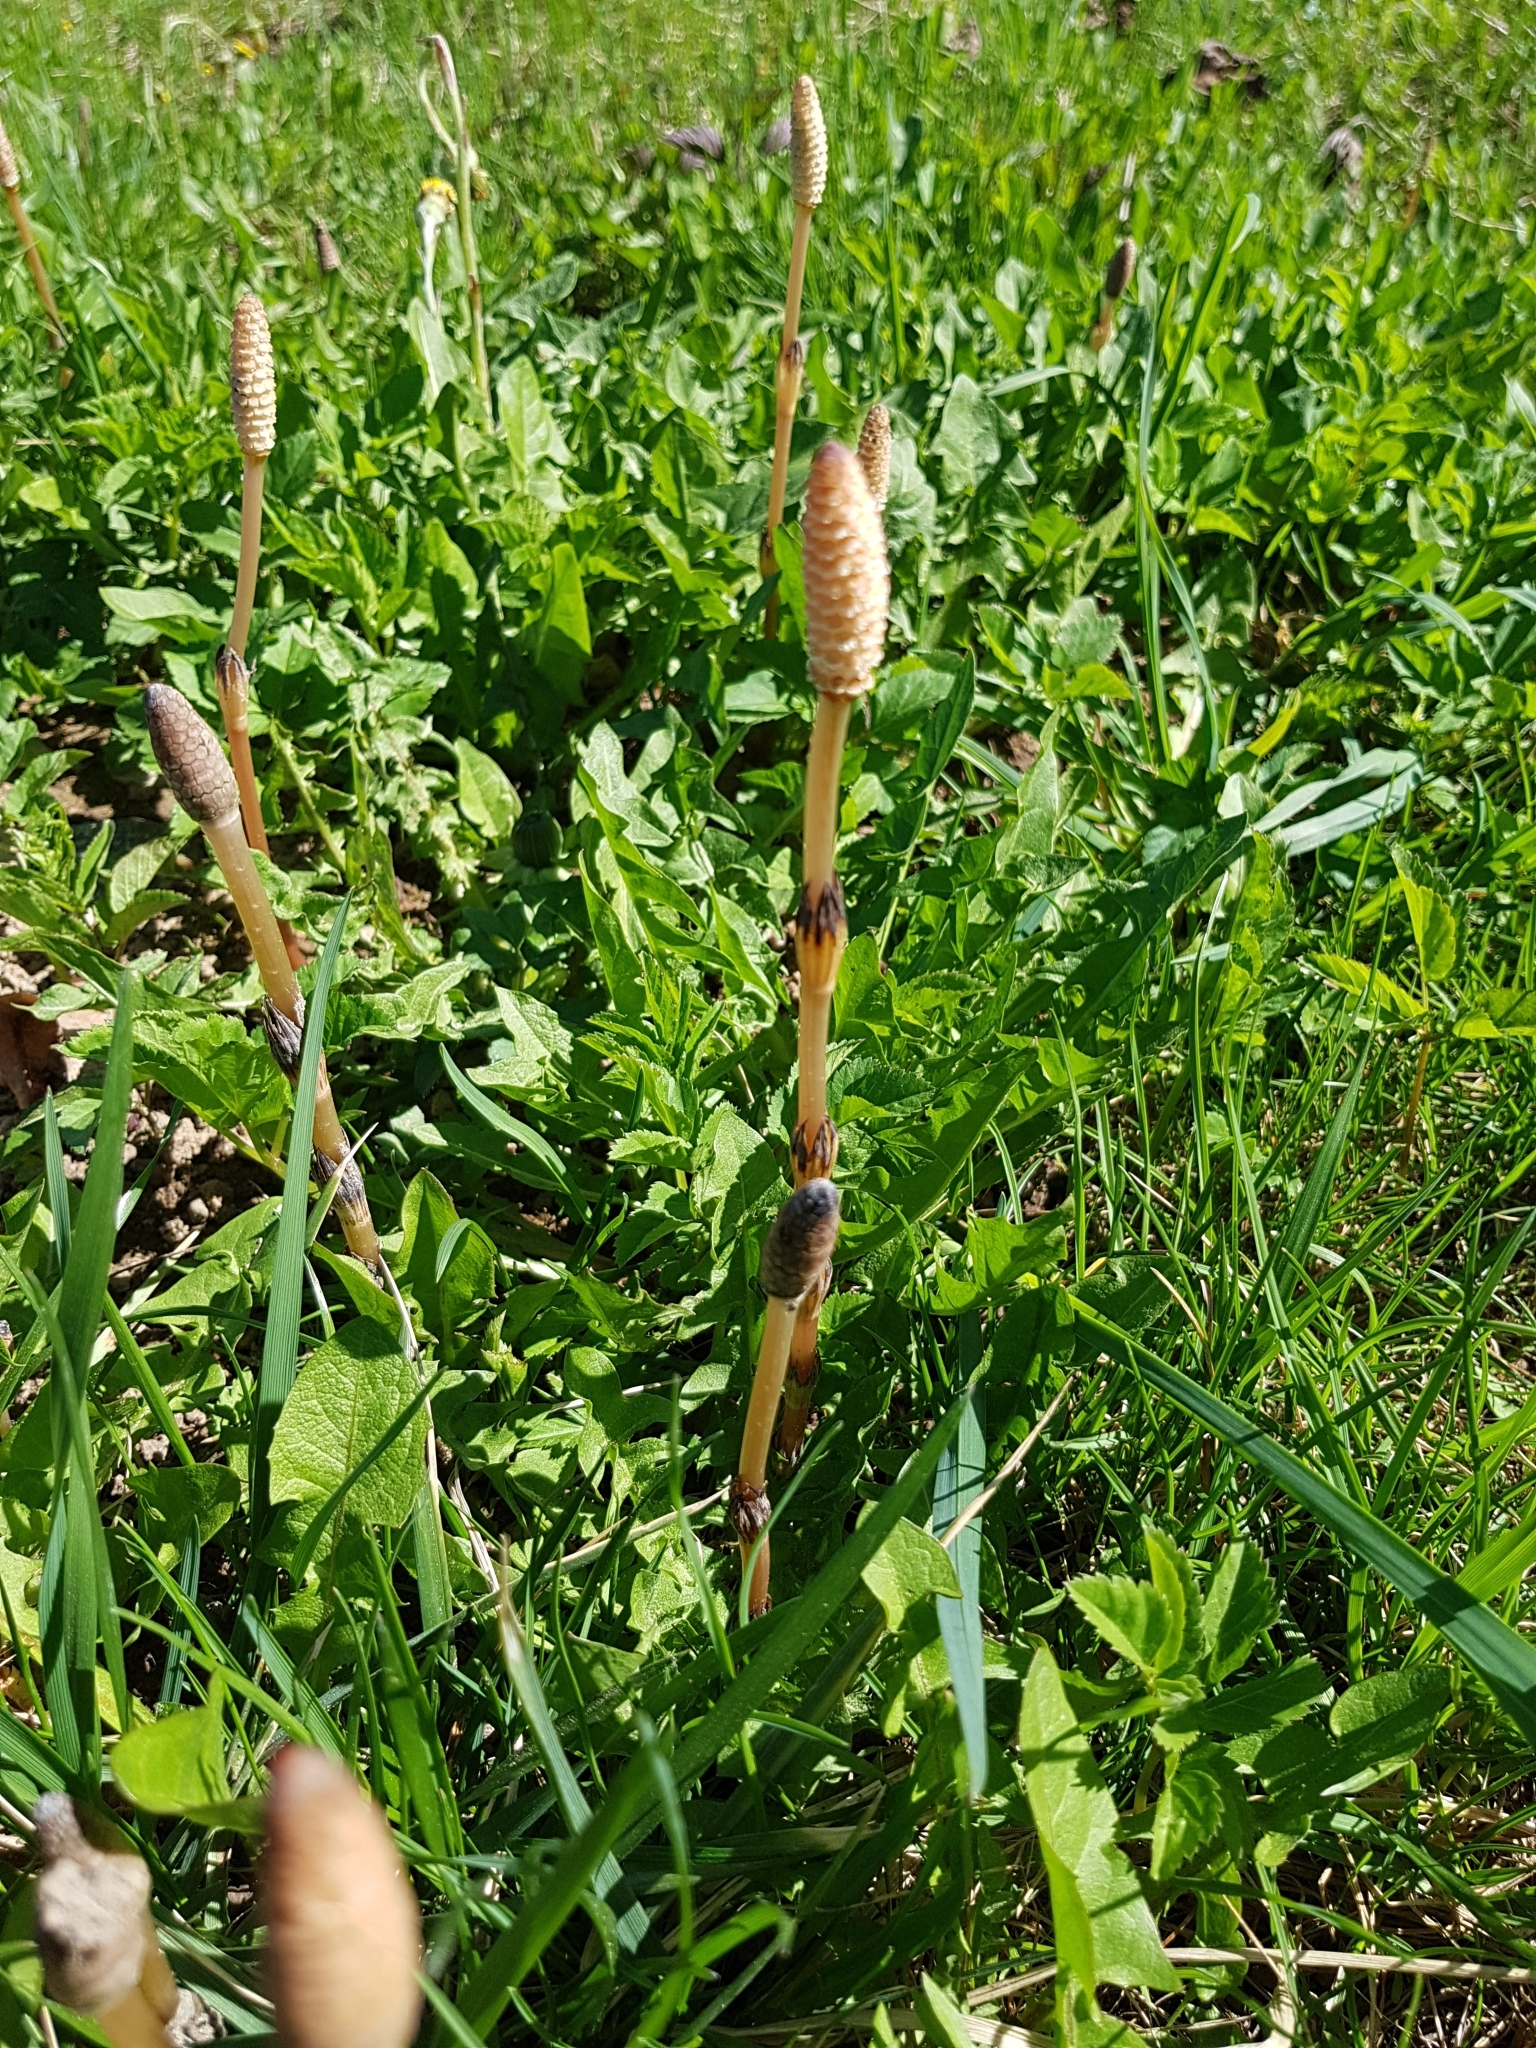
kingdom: Plantae
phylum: Tracheophyta
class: Polypodiopsida
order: Equisetales
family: Equisetaceae
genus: Equisetum
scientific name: Equisetum arvense
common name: Field horsetail
